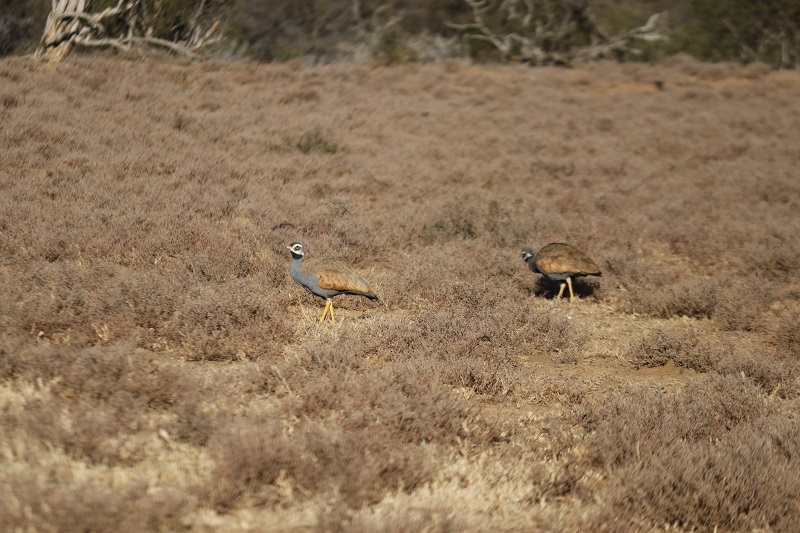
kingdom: Animalia
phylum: Chordata
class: Aves
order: Otidiformes
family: Otididae
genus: Eupodotis
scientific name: Eupodotis caerulescens
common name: Blue korhaan
